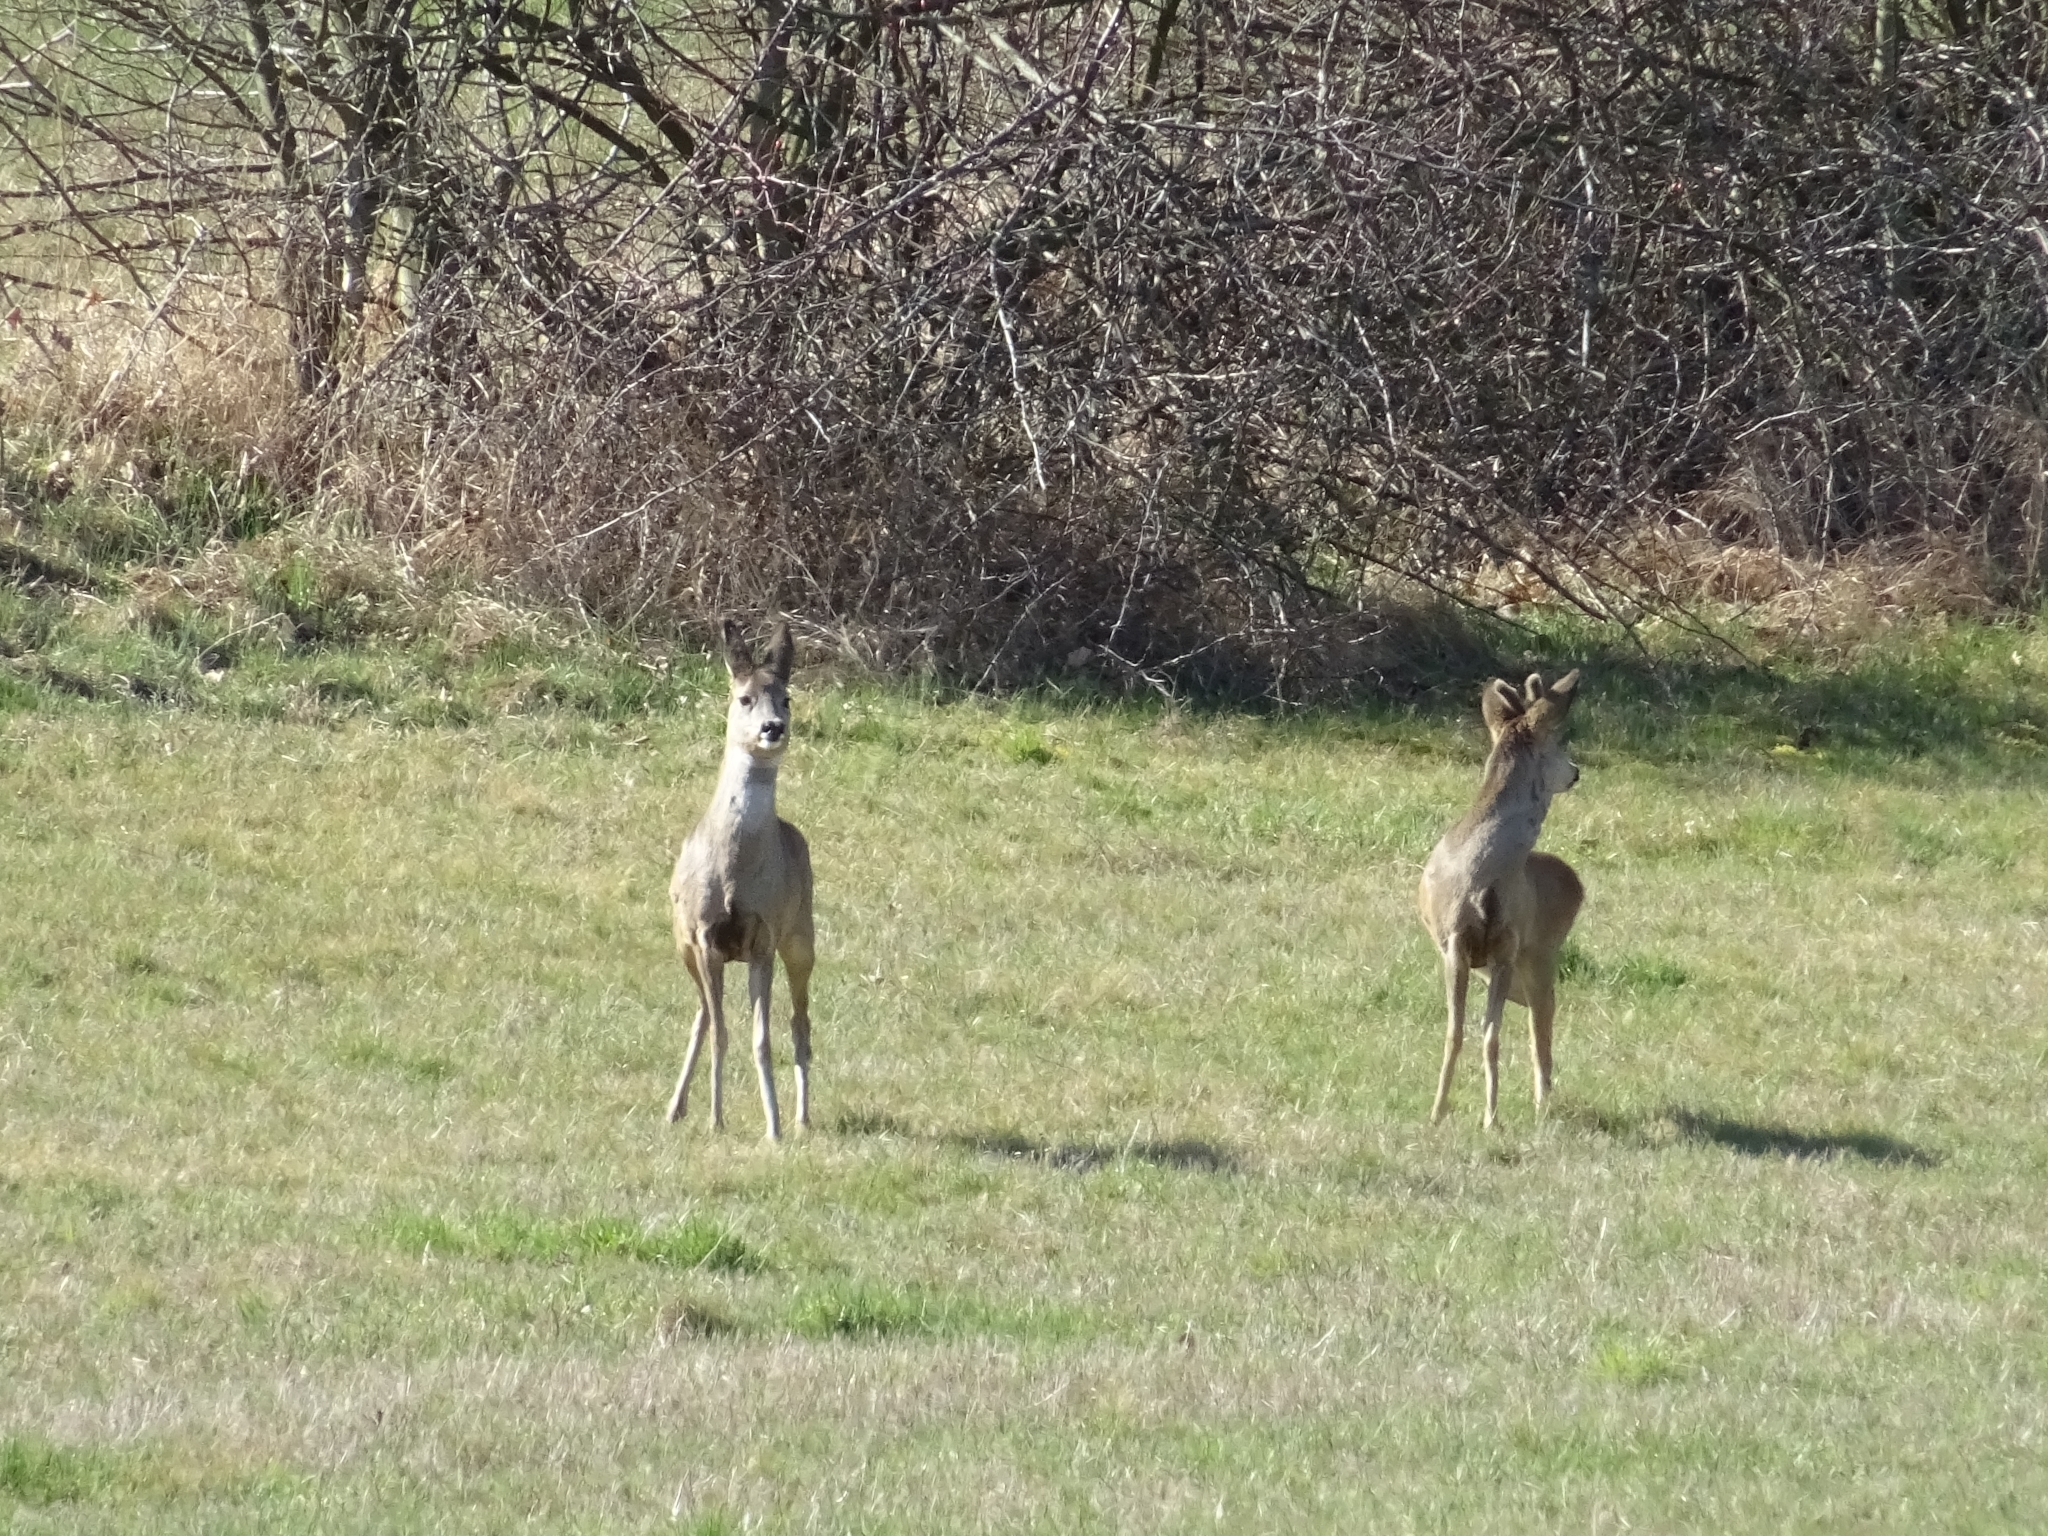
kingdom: Animalia
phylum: Chordata
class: Mammalia
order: Artiodactyla
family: Cervidae
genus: Capreolus
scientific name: Capreolus capreolus
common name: Western roe deer
